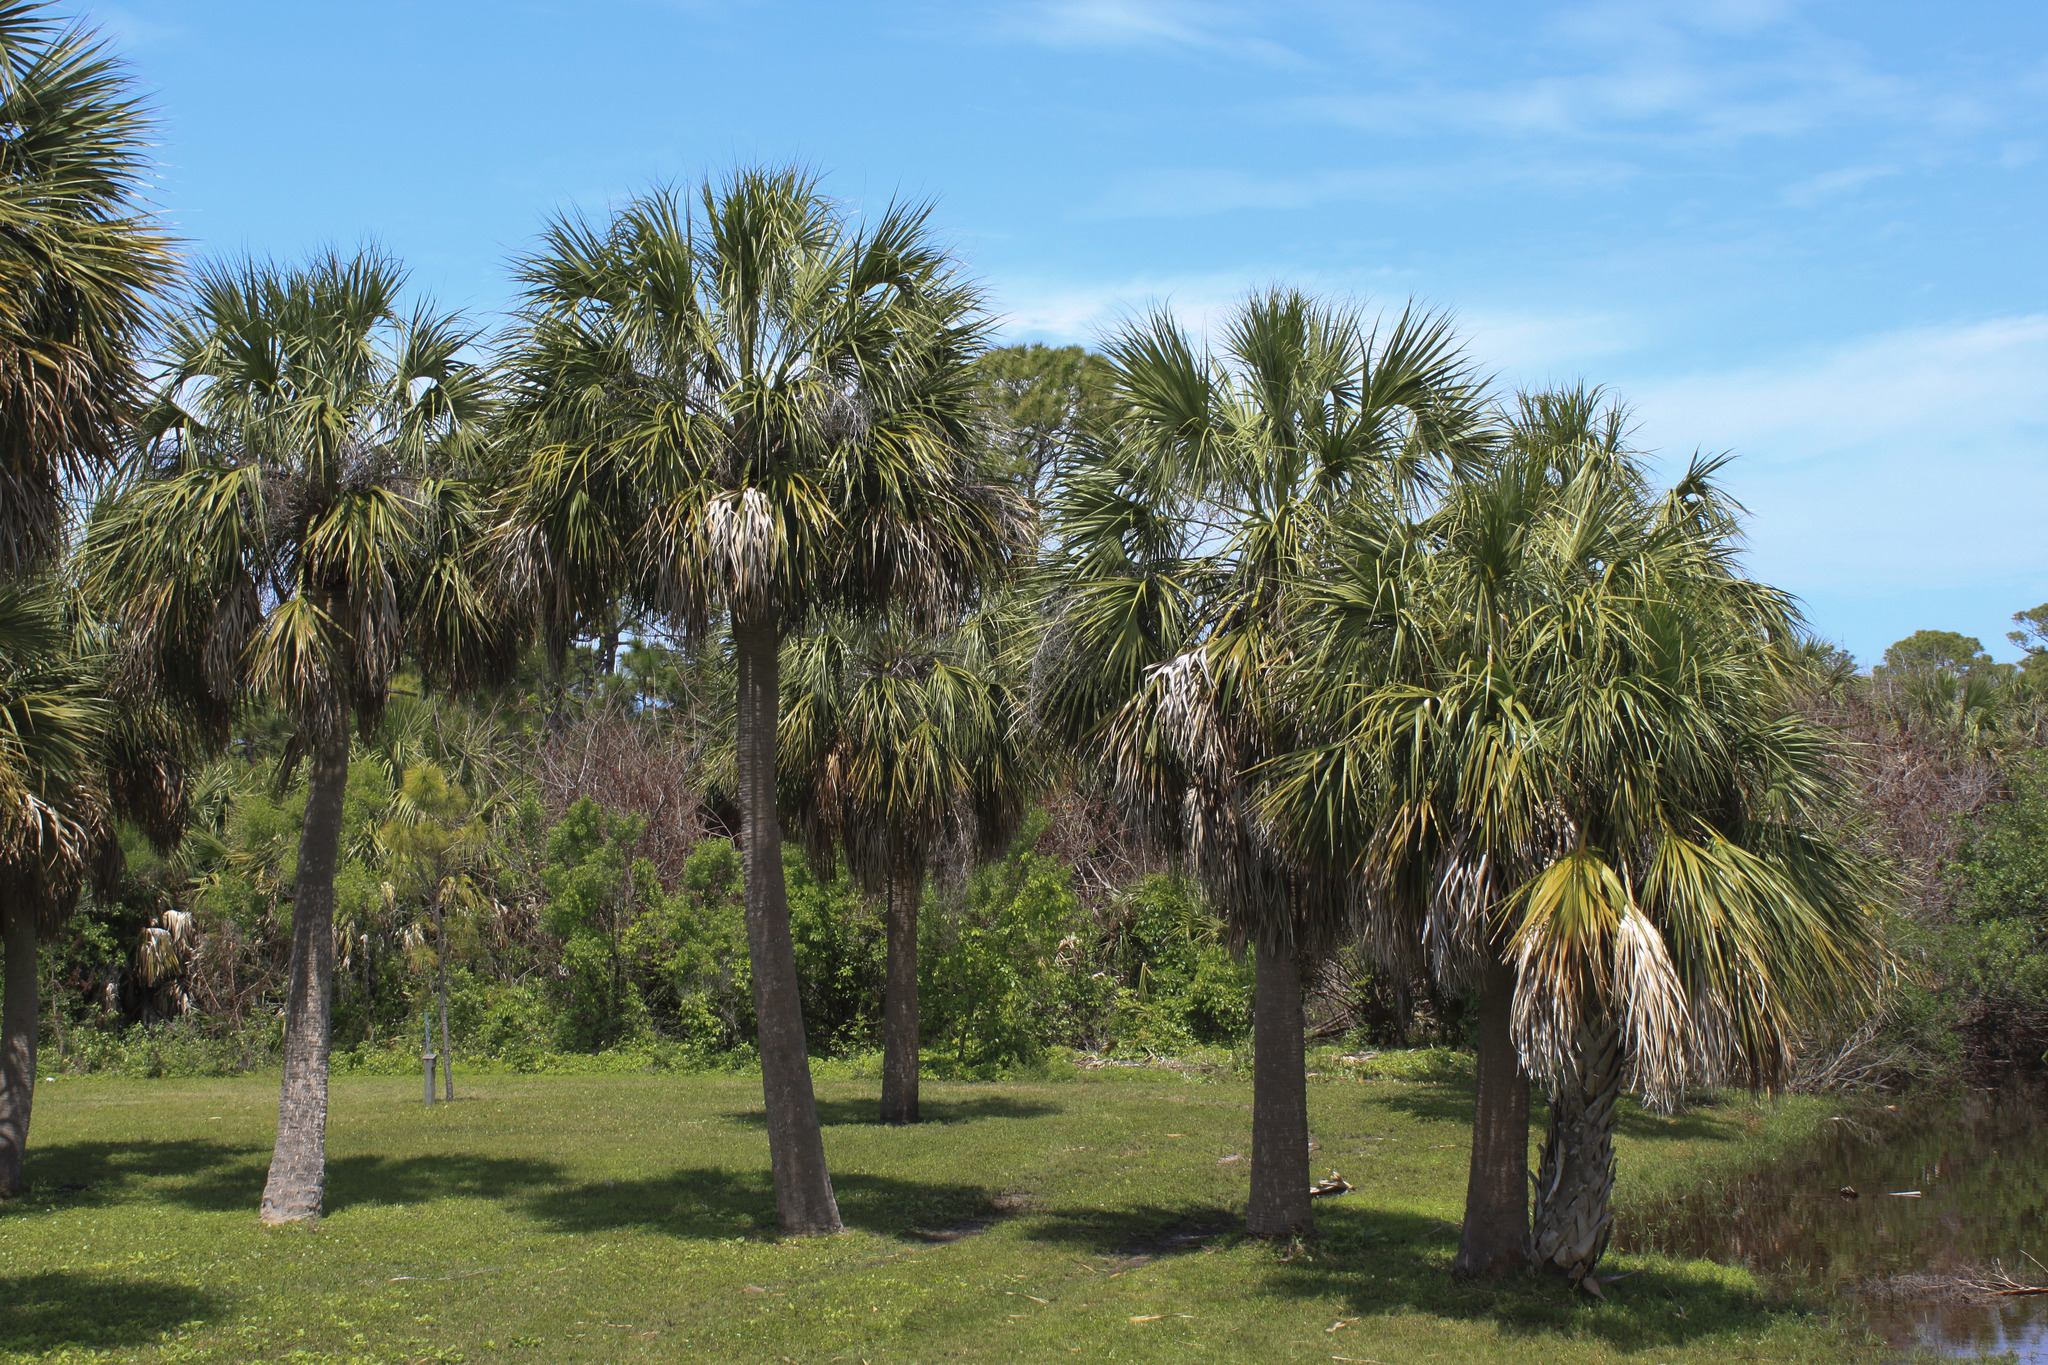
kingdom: Plantae
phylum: Tracheophyta
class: Liliopsida
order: Arecales
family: Arecaceae
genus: Sabal
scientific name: Sabal palmetto
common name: Blue palmetto
